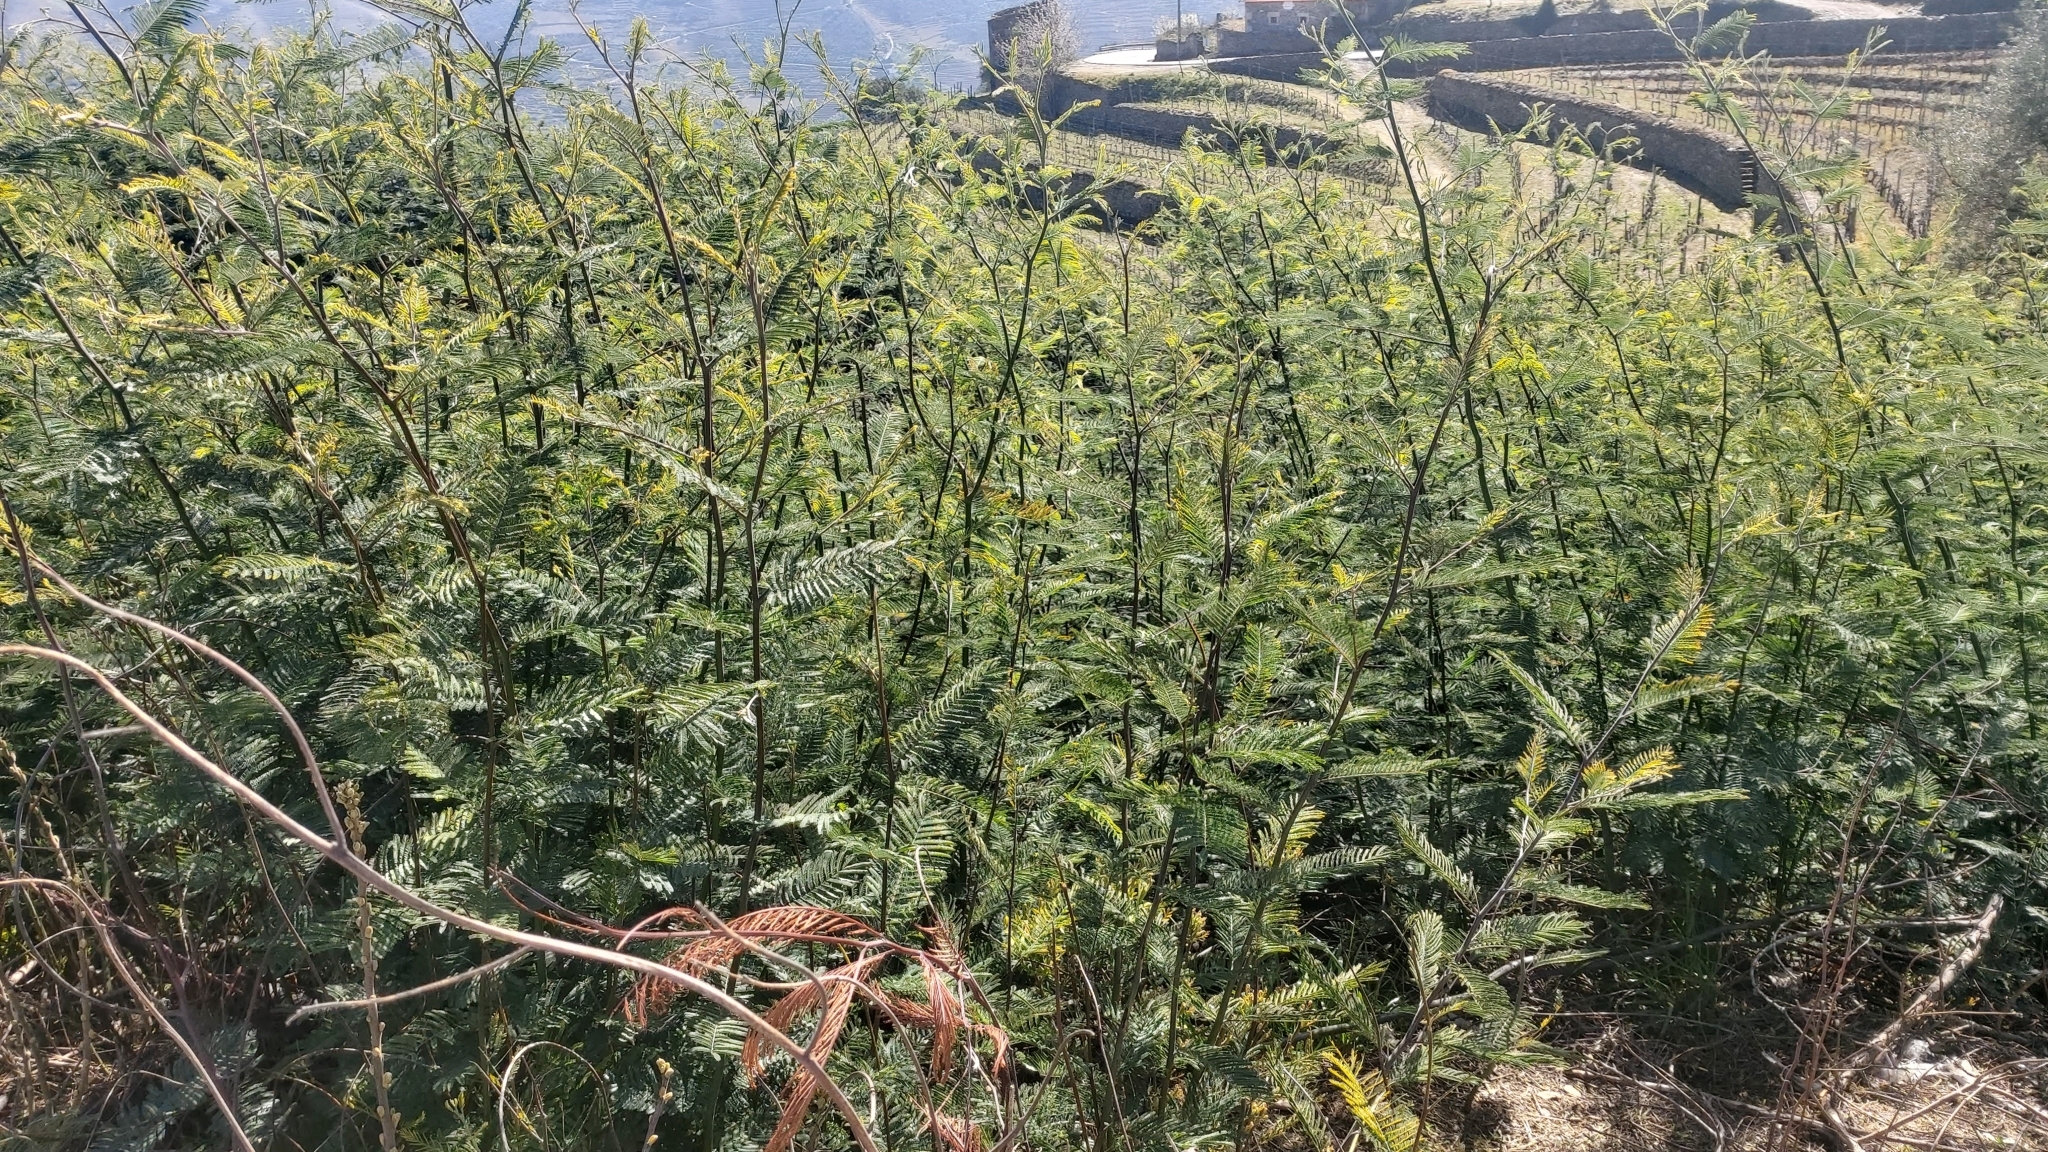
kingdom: Plantae
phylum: Tracheophyta
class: Magnoliopsida
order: Fabales
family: Fabaceae
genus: Acacia
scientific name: Acacia dealbata
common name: Silver wattle
